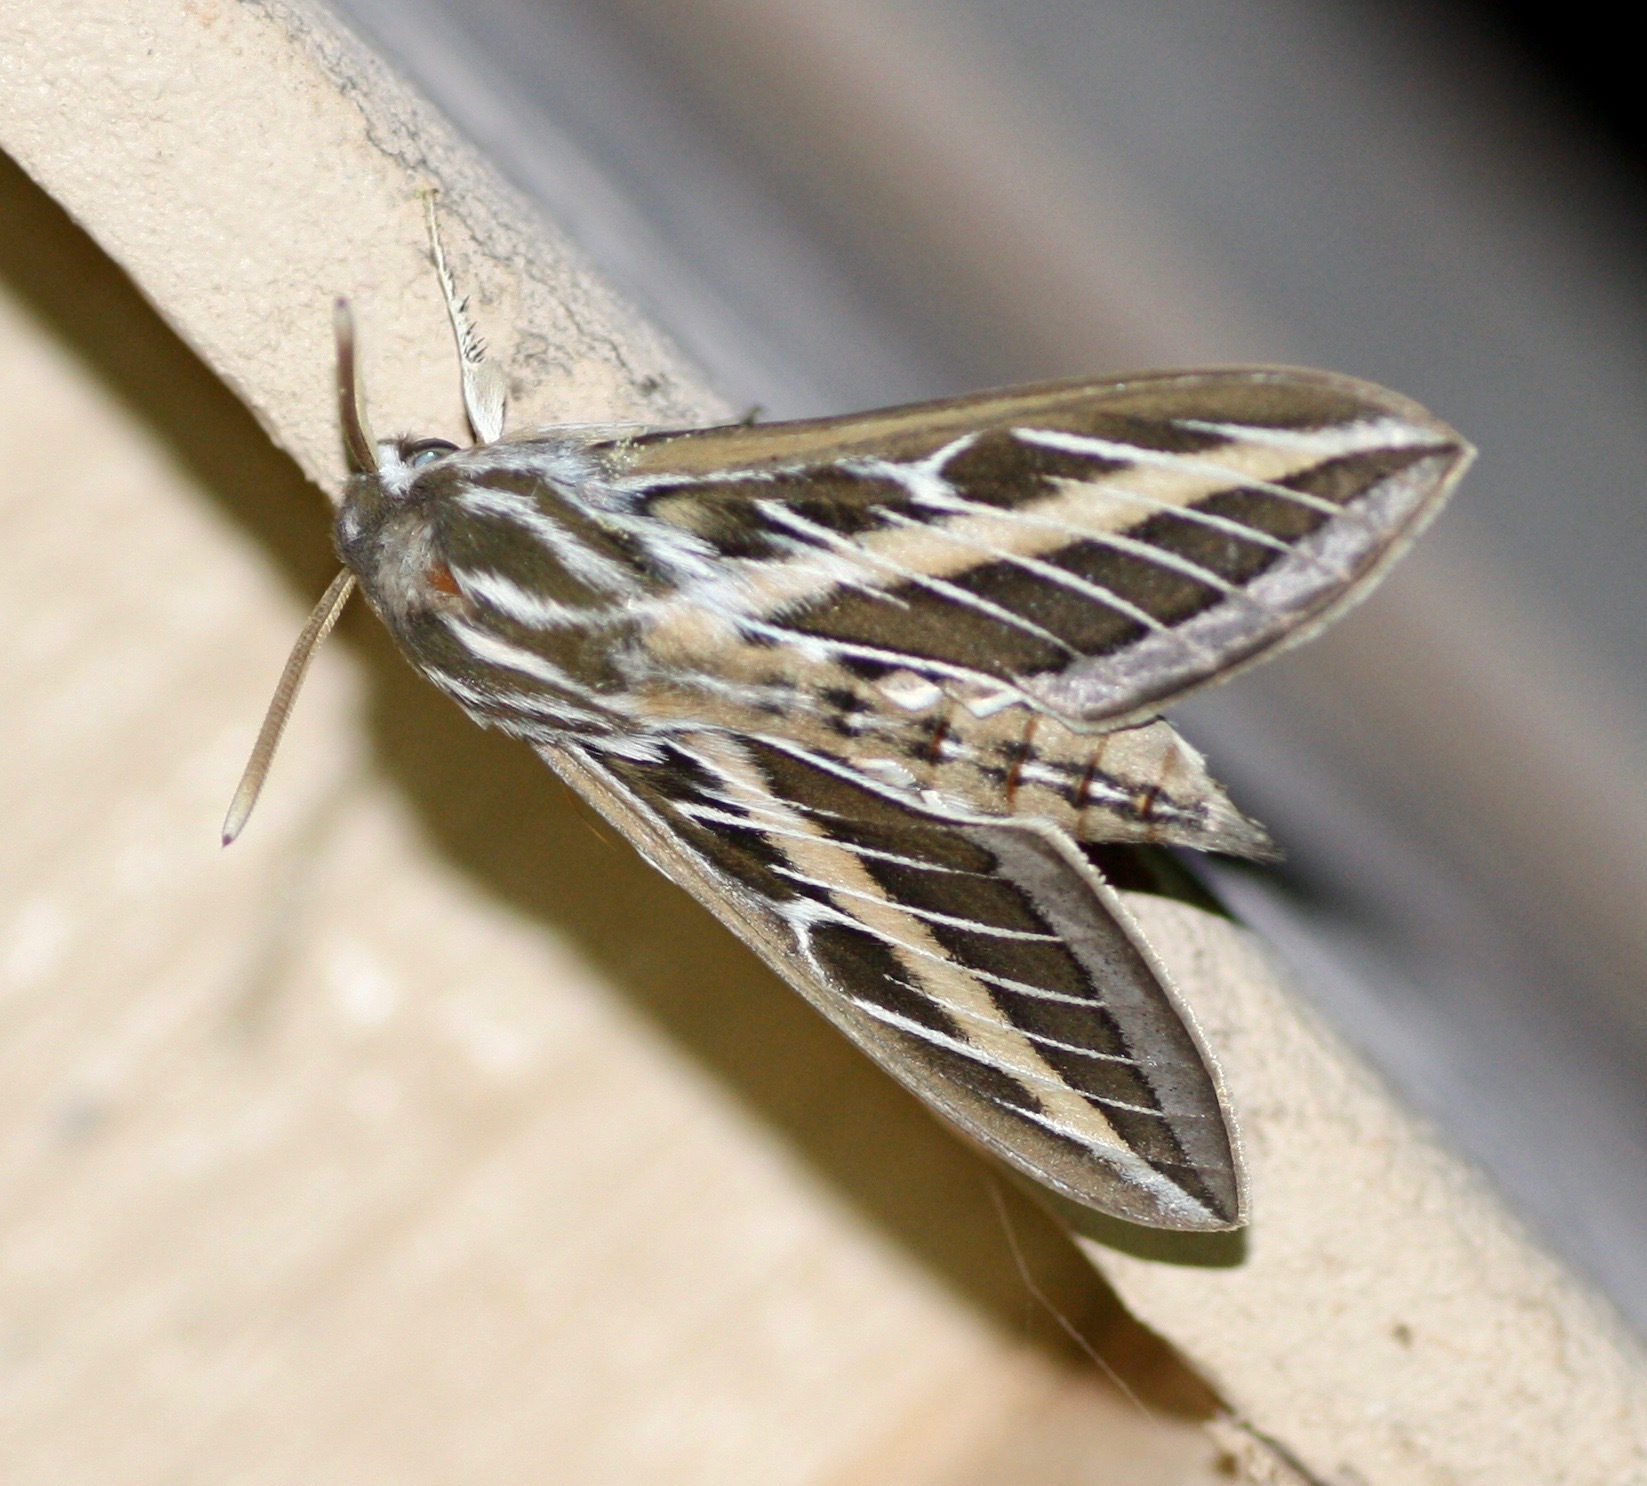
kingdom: Animalia
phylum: Arthropoda
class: Insecta
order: Lepidoptera
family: Sphingidae
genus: Hyles
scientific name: Hyles lineata
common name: White-lined sphinx
